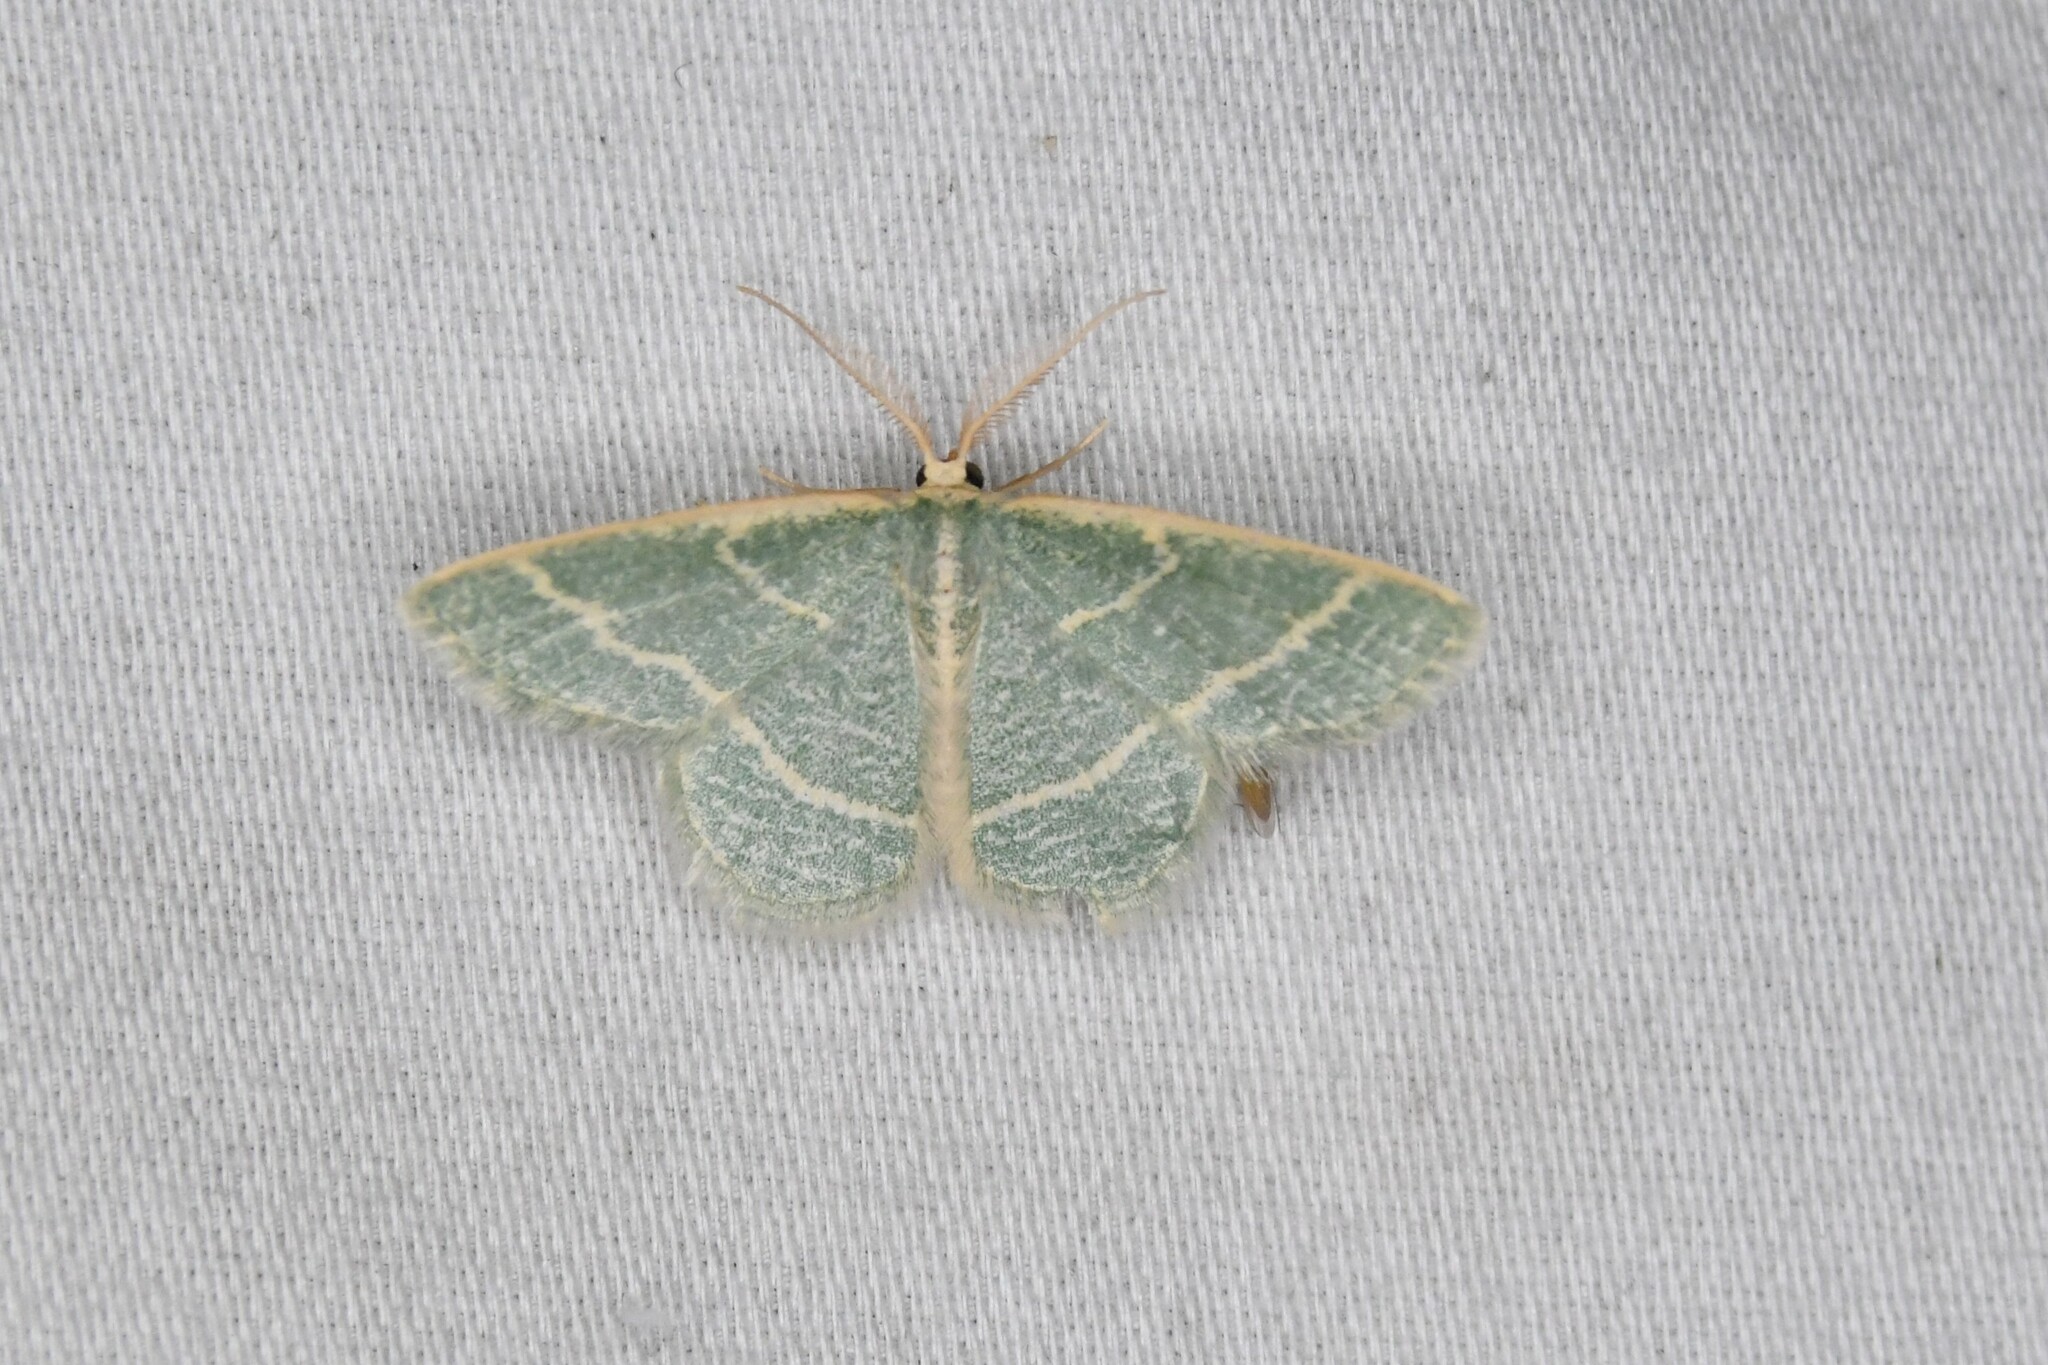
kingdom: Animalia
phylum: Arthropoda
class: Insecta
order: Lepidoptera
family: Geometridae
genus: Chlorochlamys
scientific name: Chlorochlamys chloroleucaria
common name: Blackberry looper
